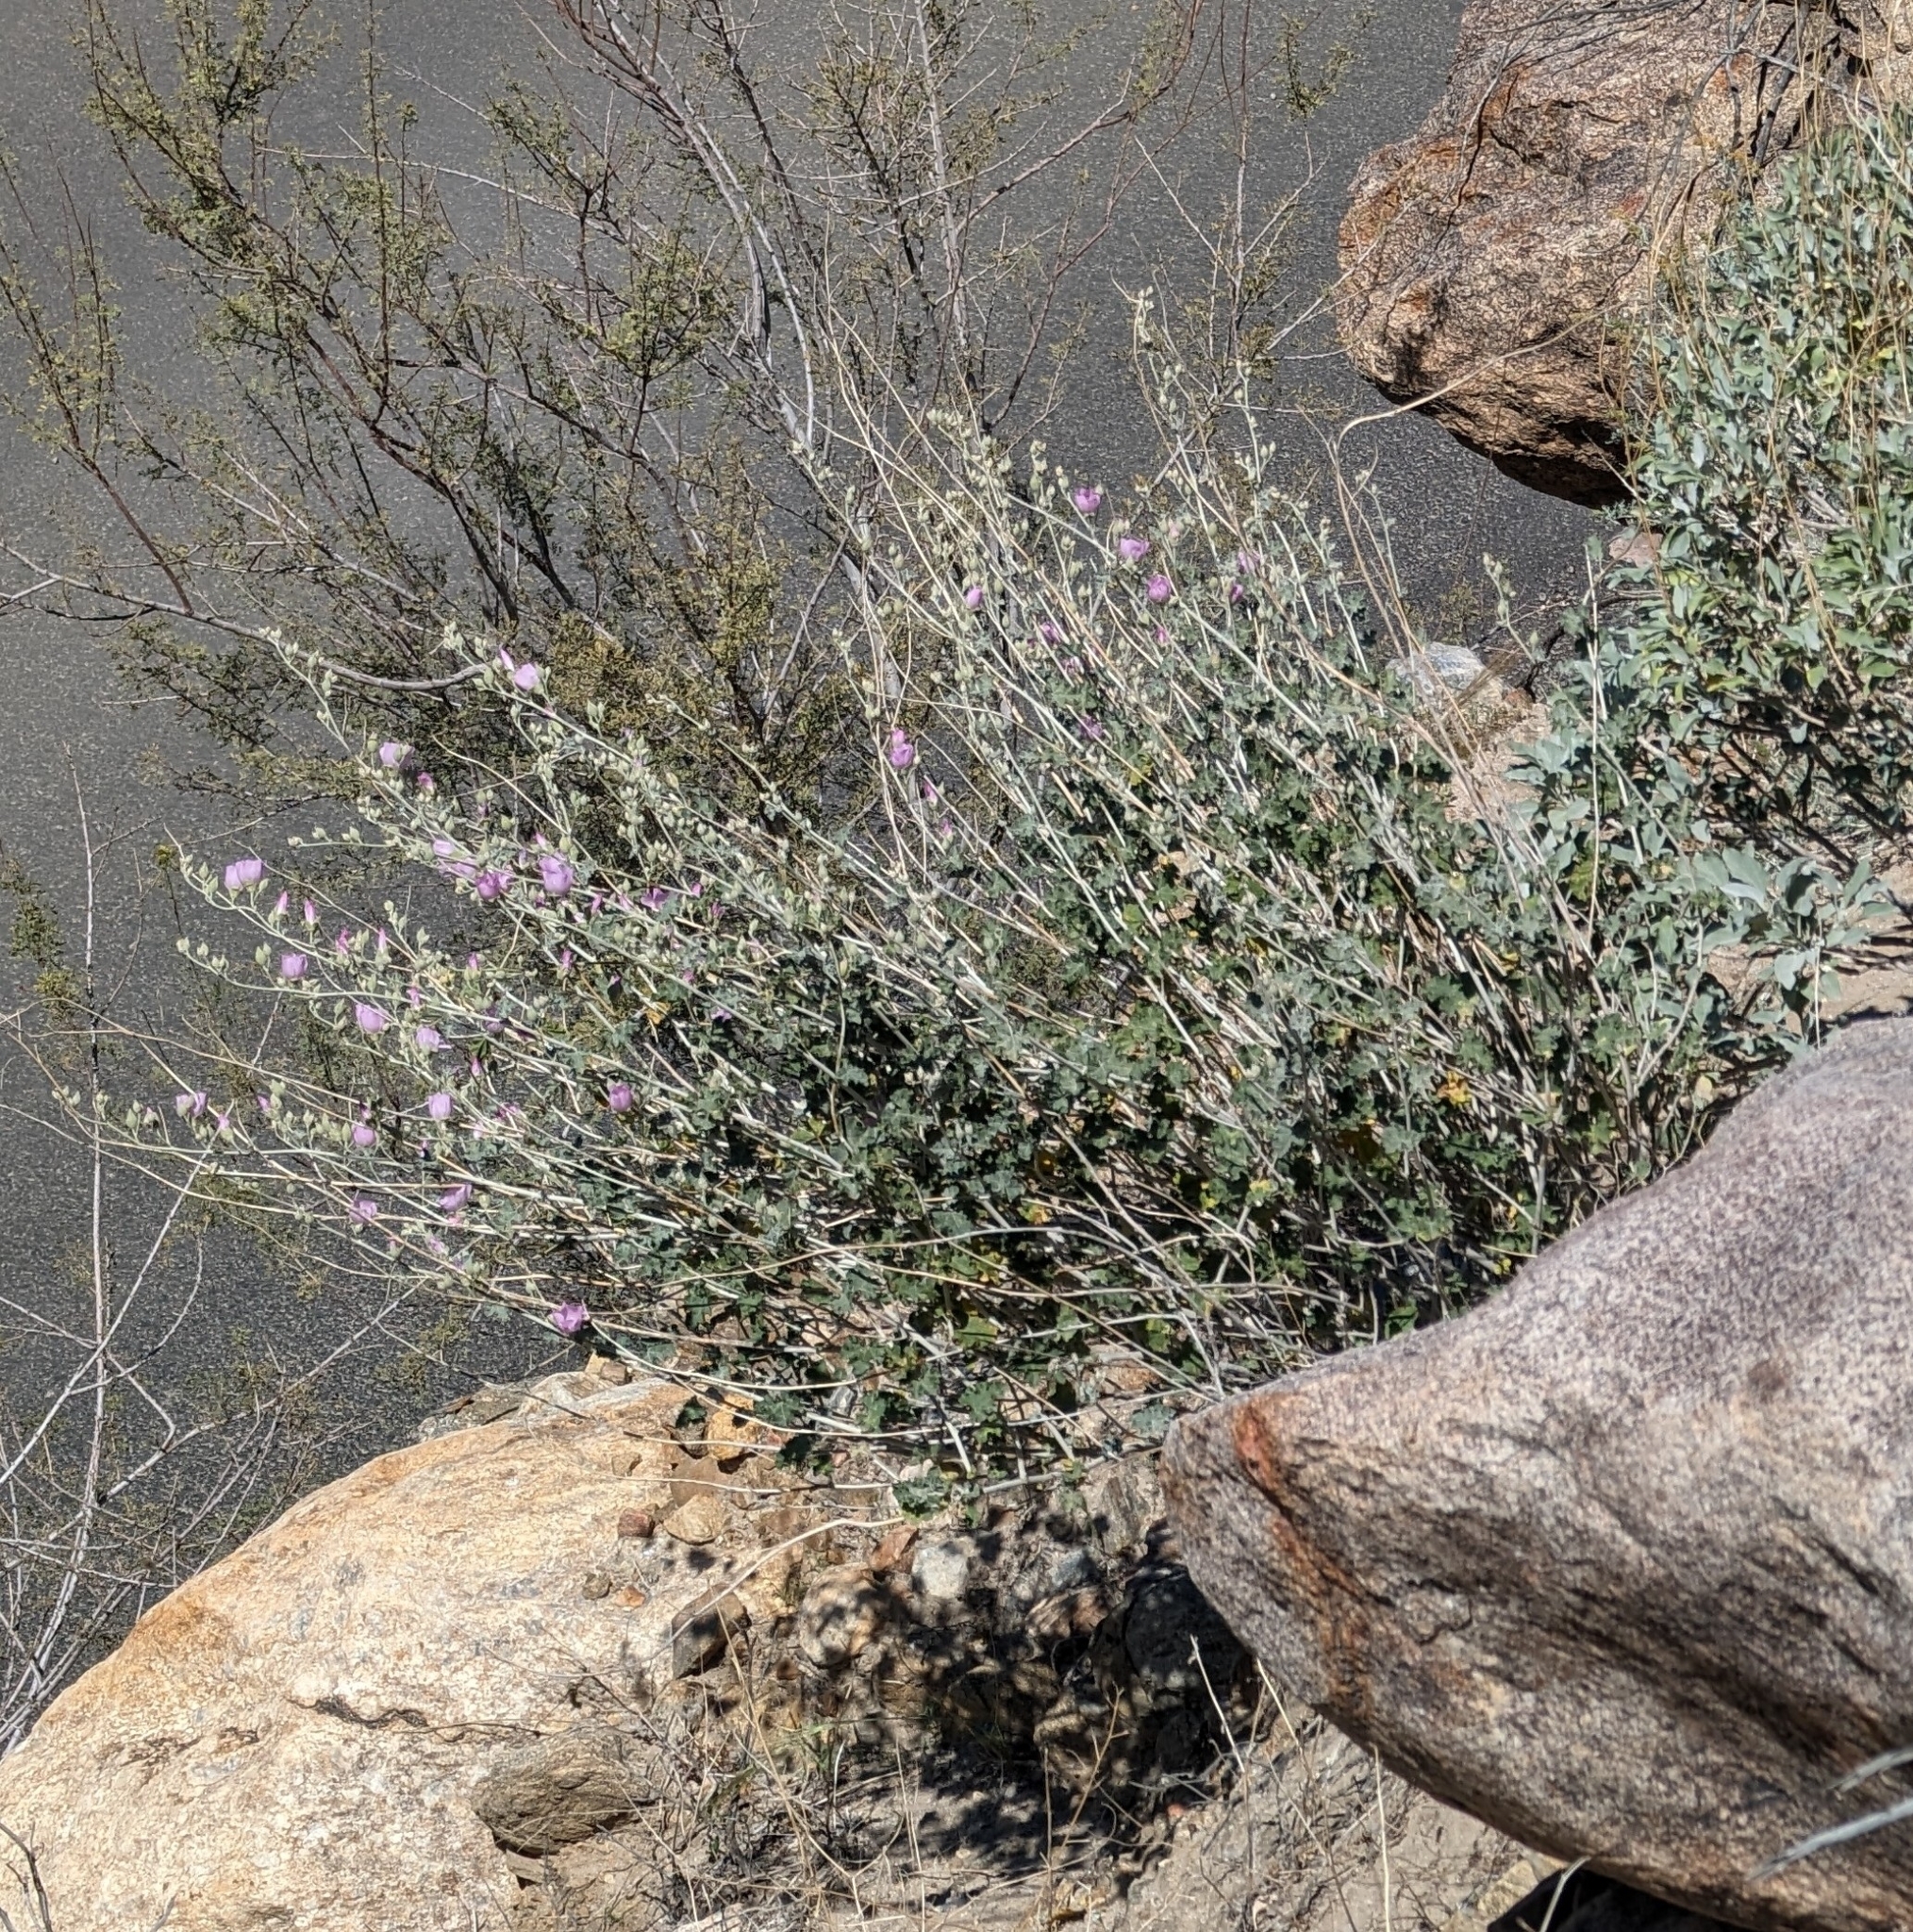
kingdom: Plantae
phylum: Tracheophyta
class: Magnoliopsida
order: Malvales
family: Malvaceae
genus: Sphaeralcea
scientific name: Sphaeralcea ambigua
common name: Apricot globe-mallow
